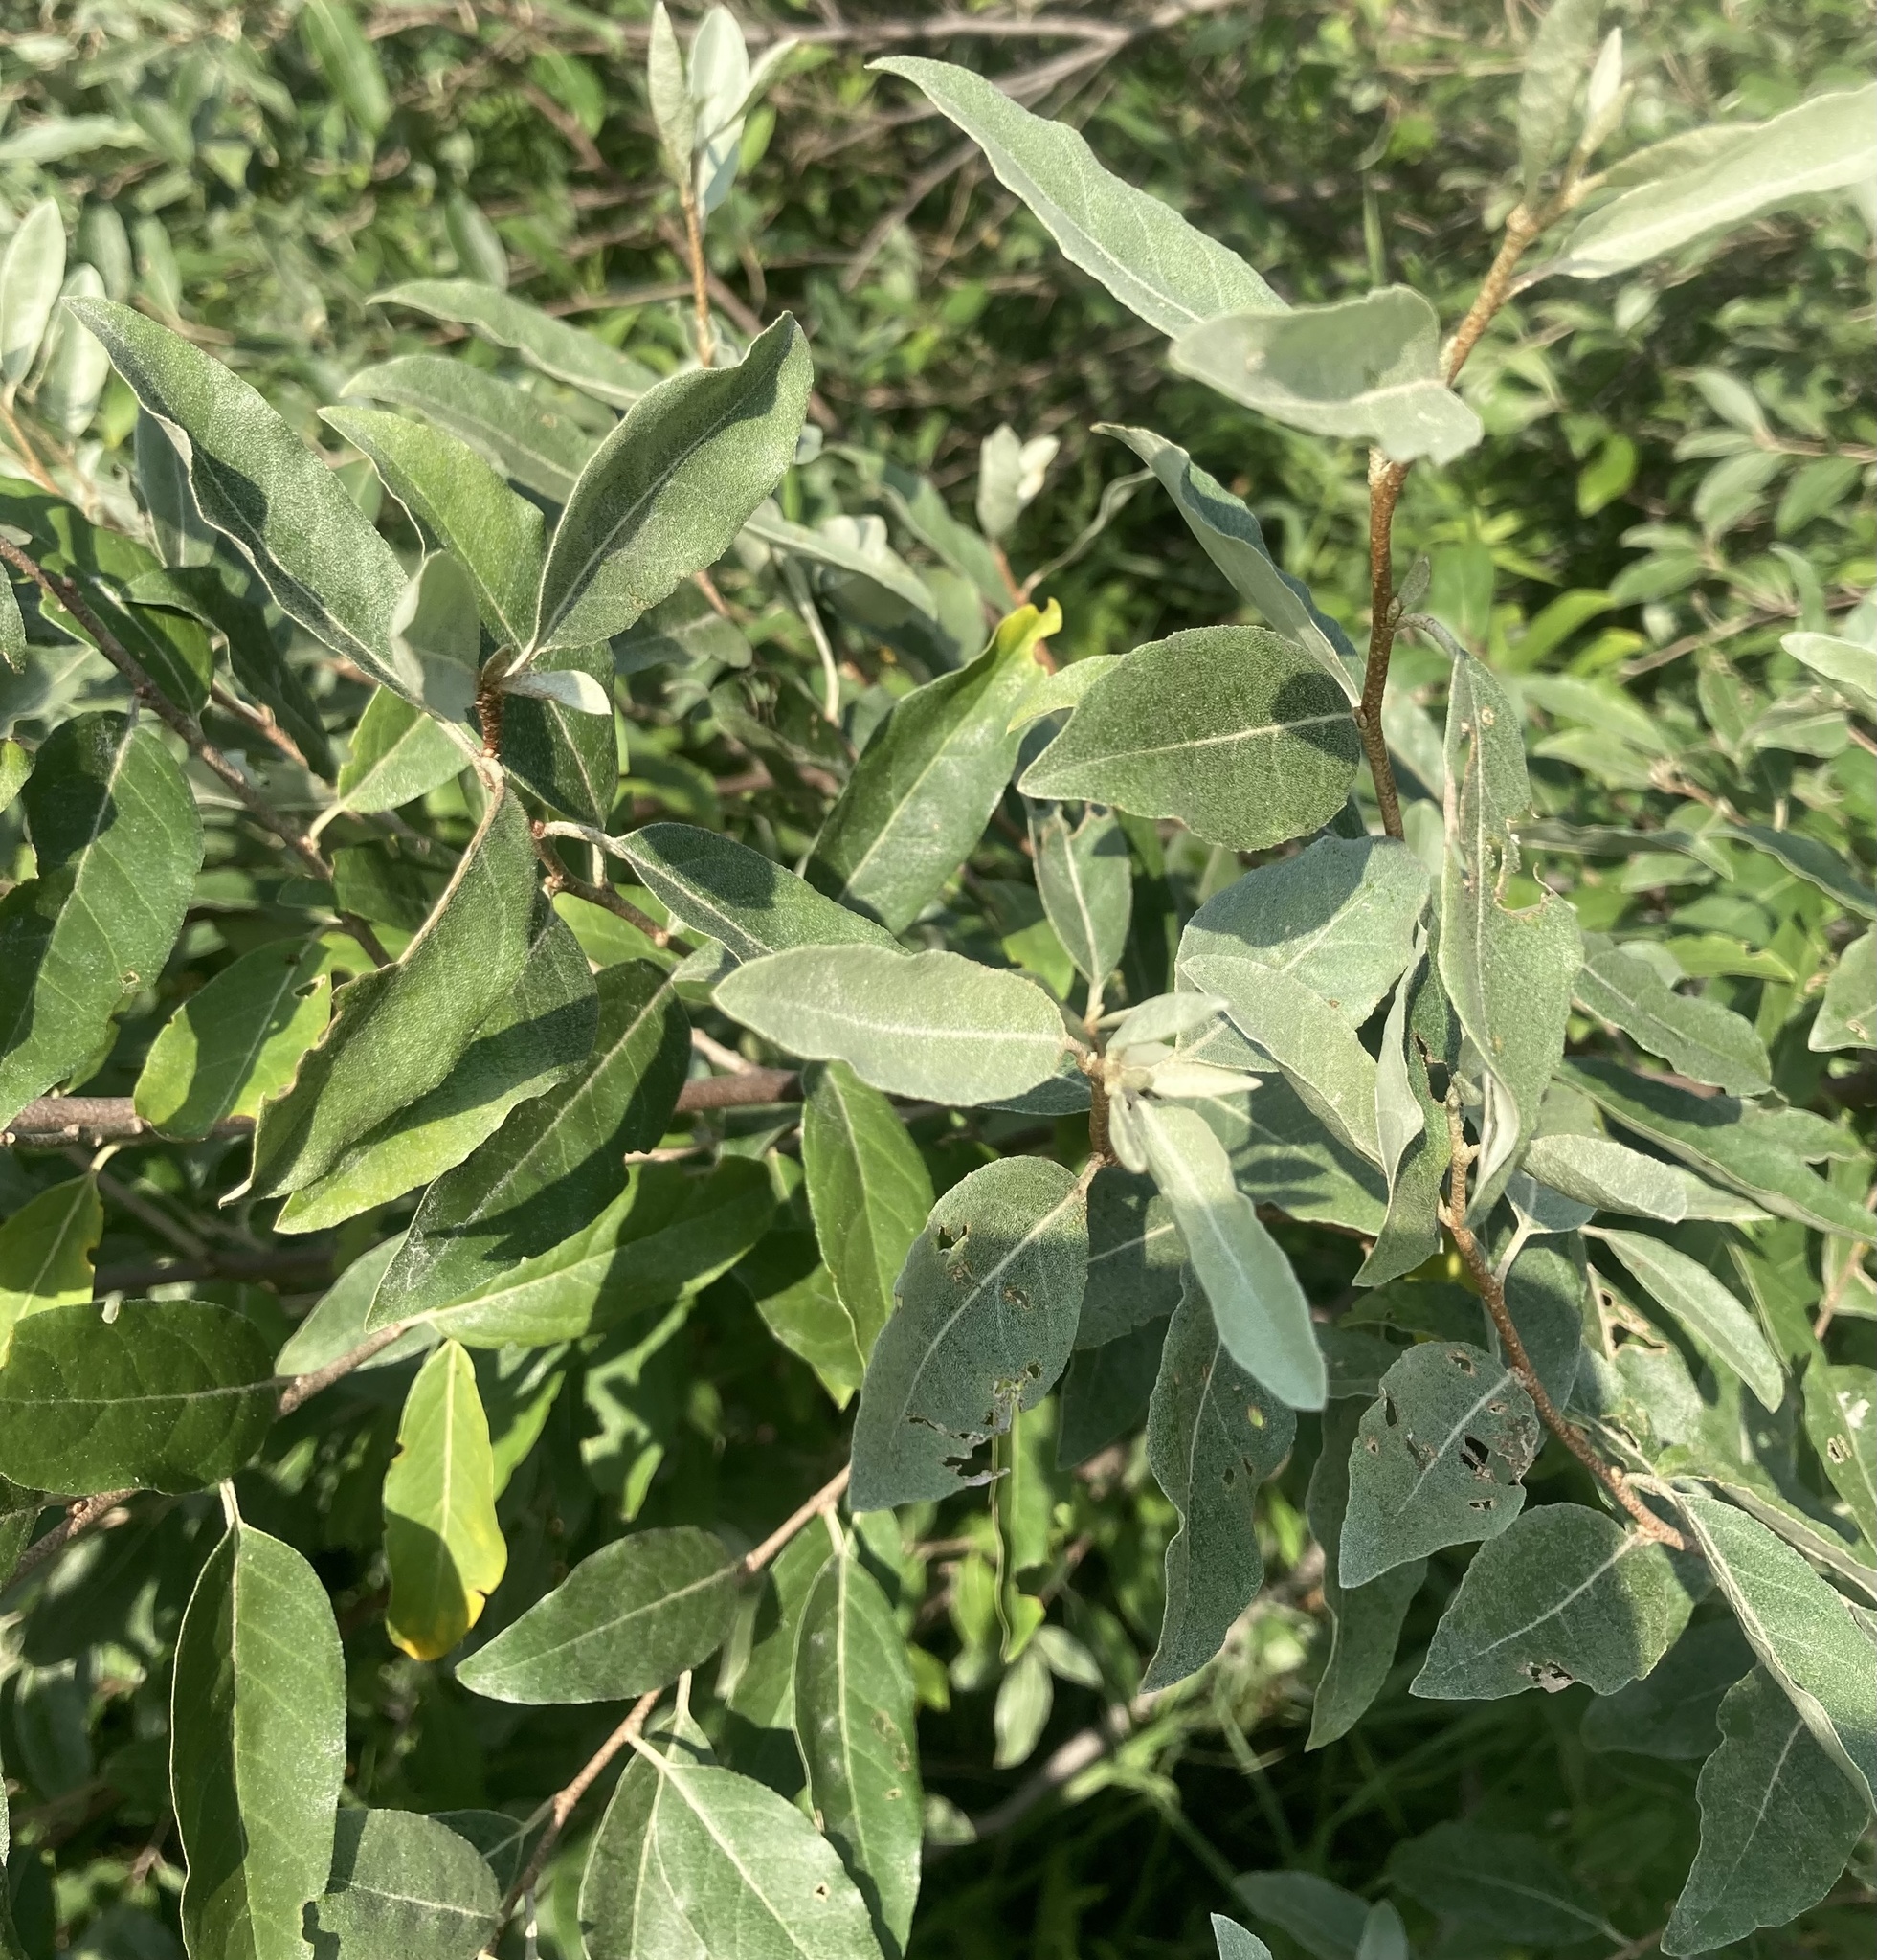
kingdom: Plantae
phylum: Tracheophyta
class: Magnoliopsida
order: Rosales
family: Elaeagnaceae
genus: Elaeagnus
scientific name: Elaeagnus umbellata
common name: Autumn olive
